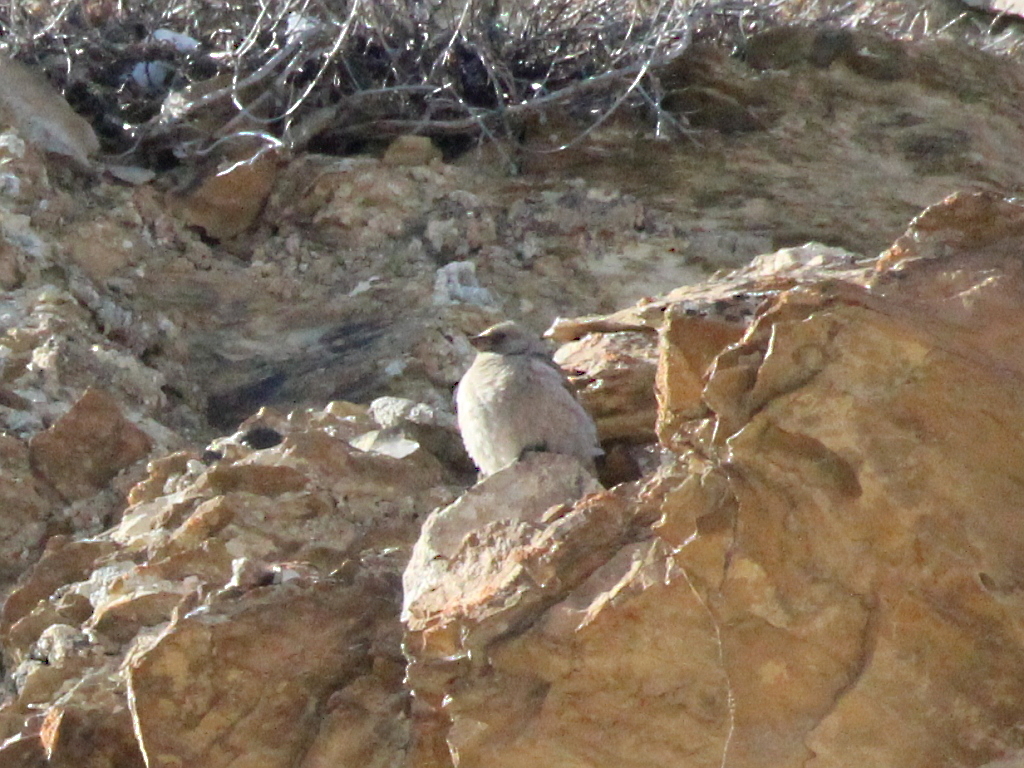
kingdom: Animalia
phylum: Chordata
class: Aves
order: Passeriformes
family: Fringillidae
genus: Leucosticte
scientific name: Leucosticte brandti
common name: Brandt's mountain finch
